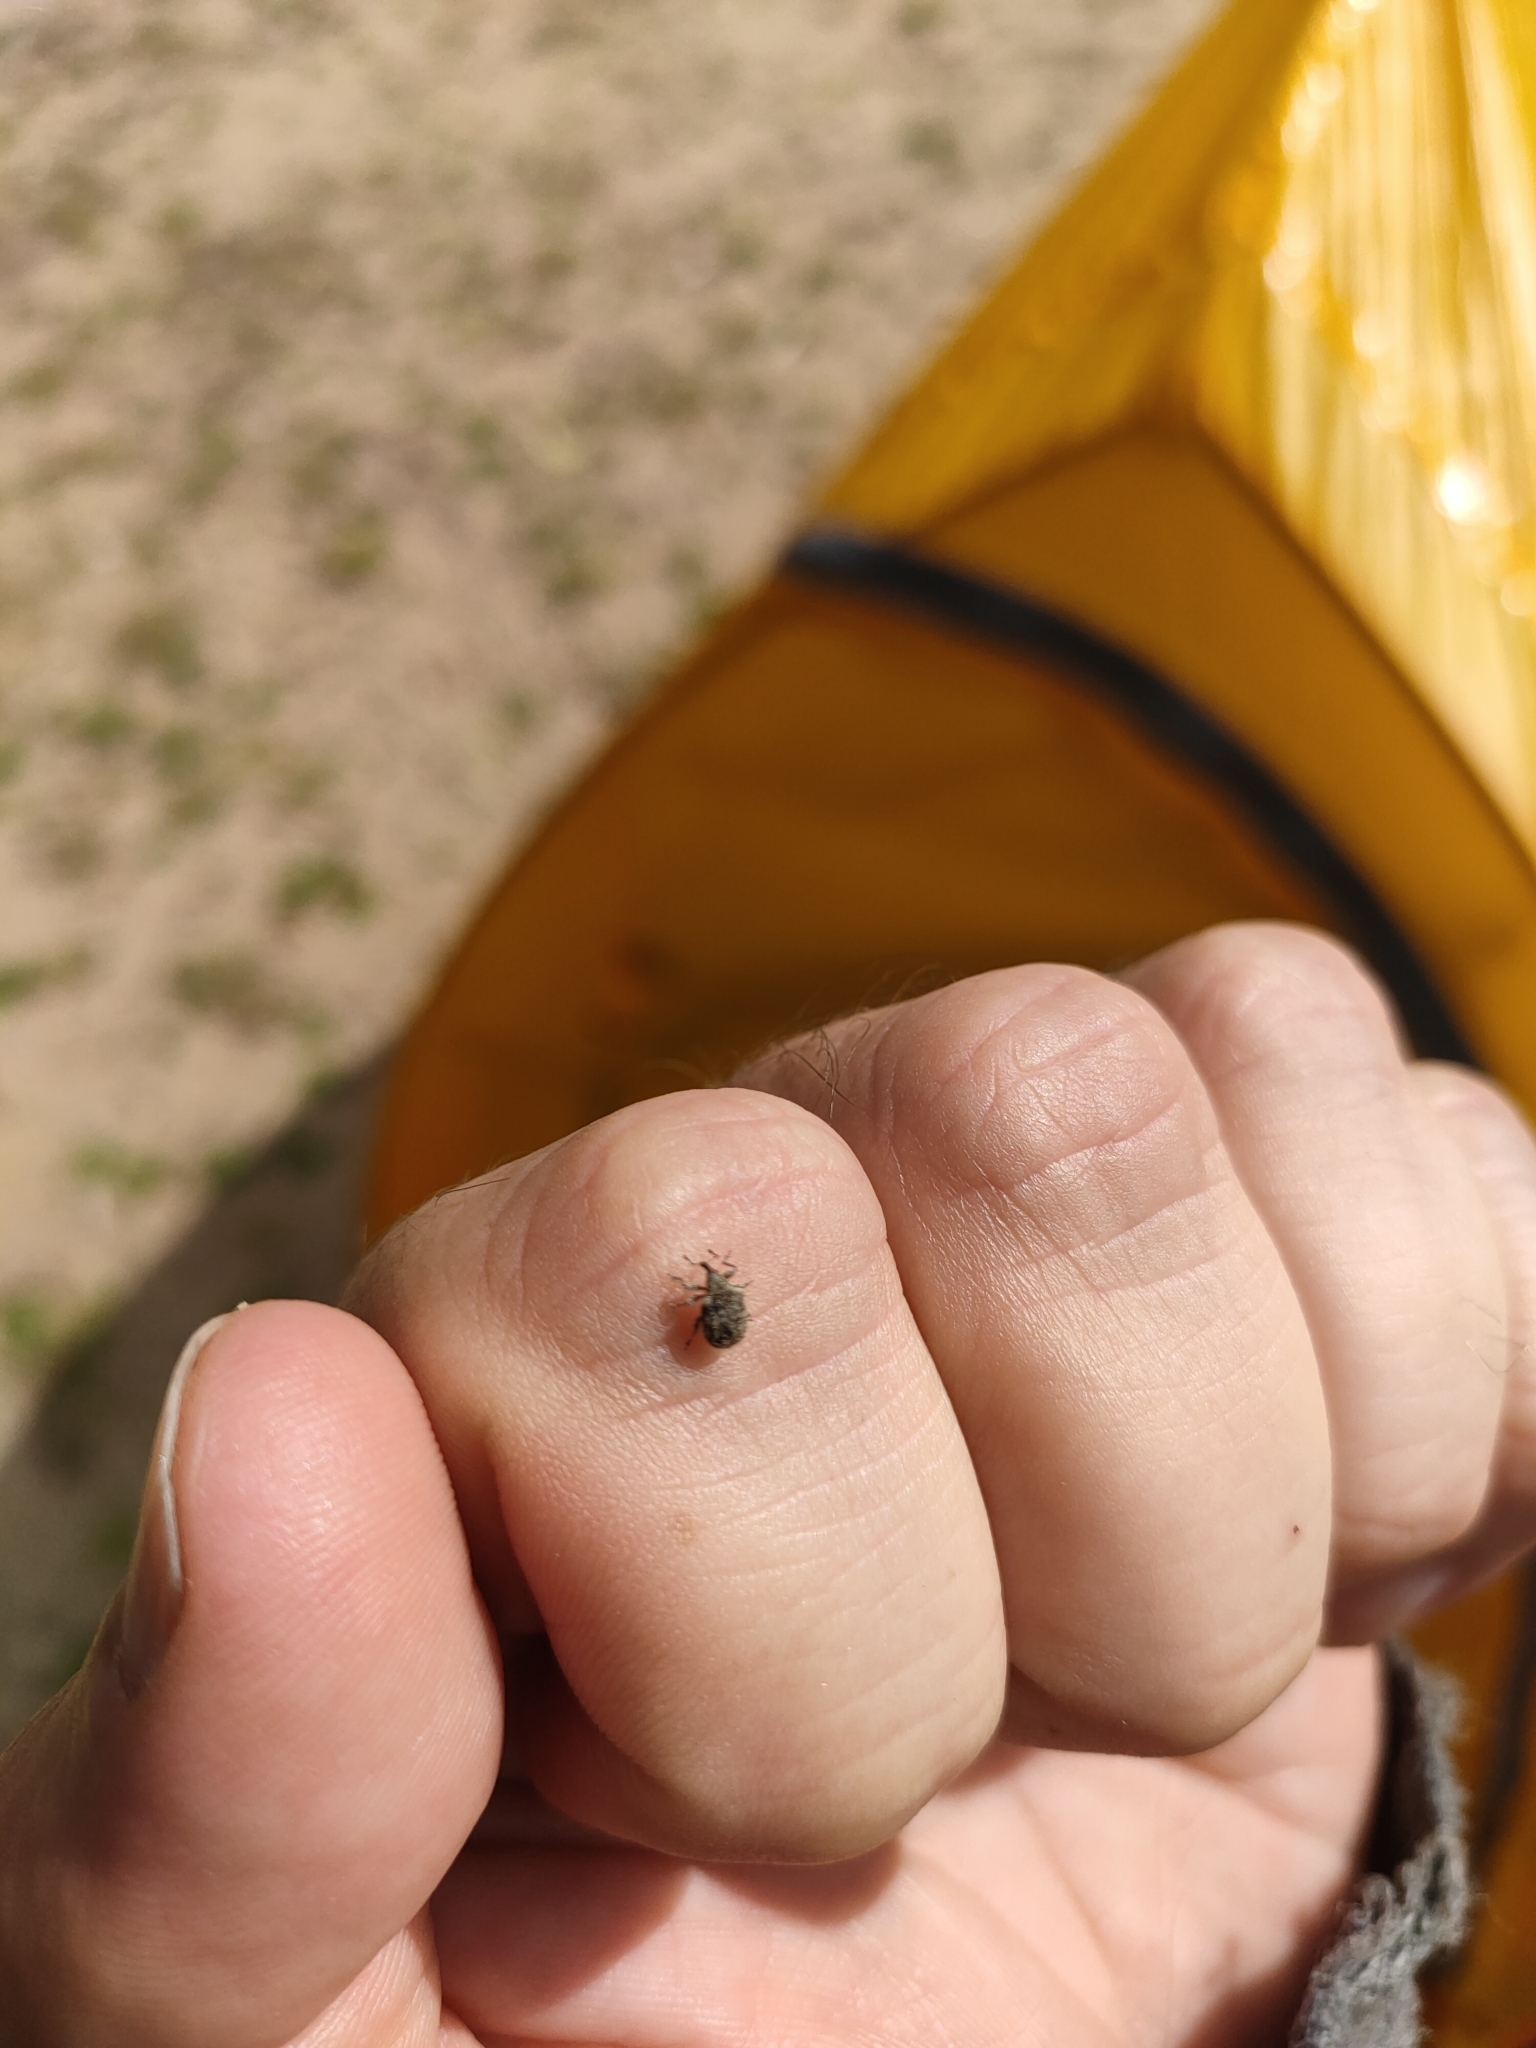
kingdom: Animalia
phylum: Arthropoda
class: Insecta
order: Coleoptera
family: Curculionidae
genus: Cleopus
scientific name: Cleopus japonicus
